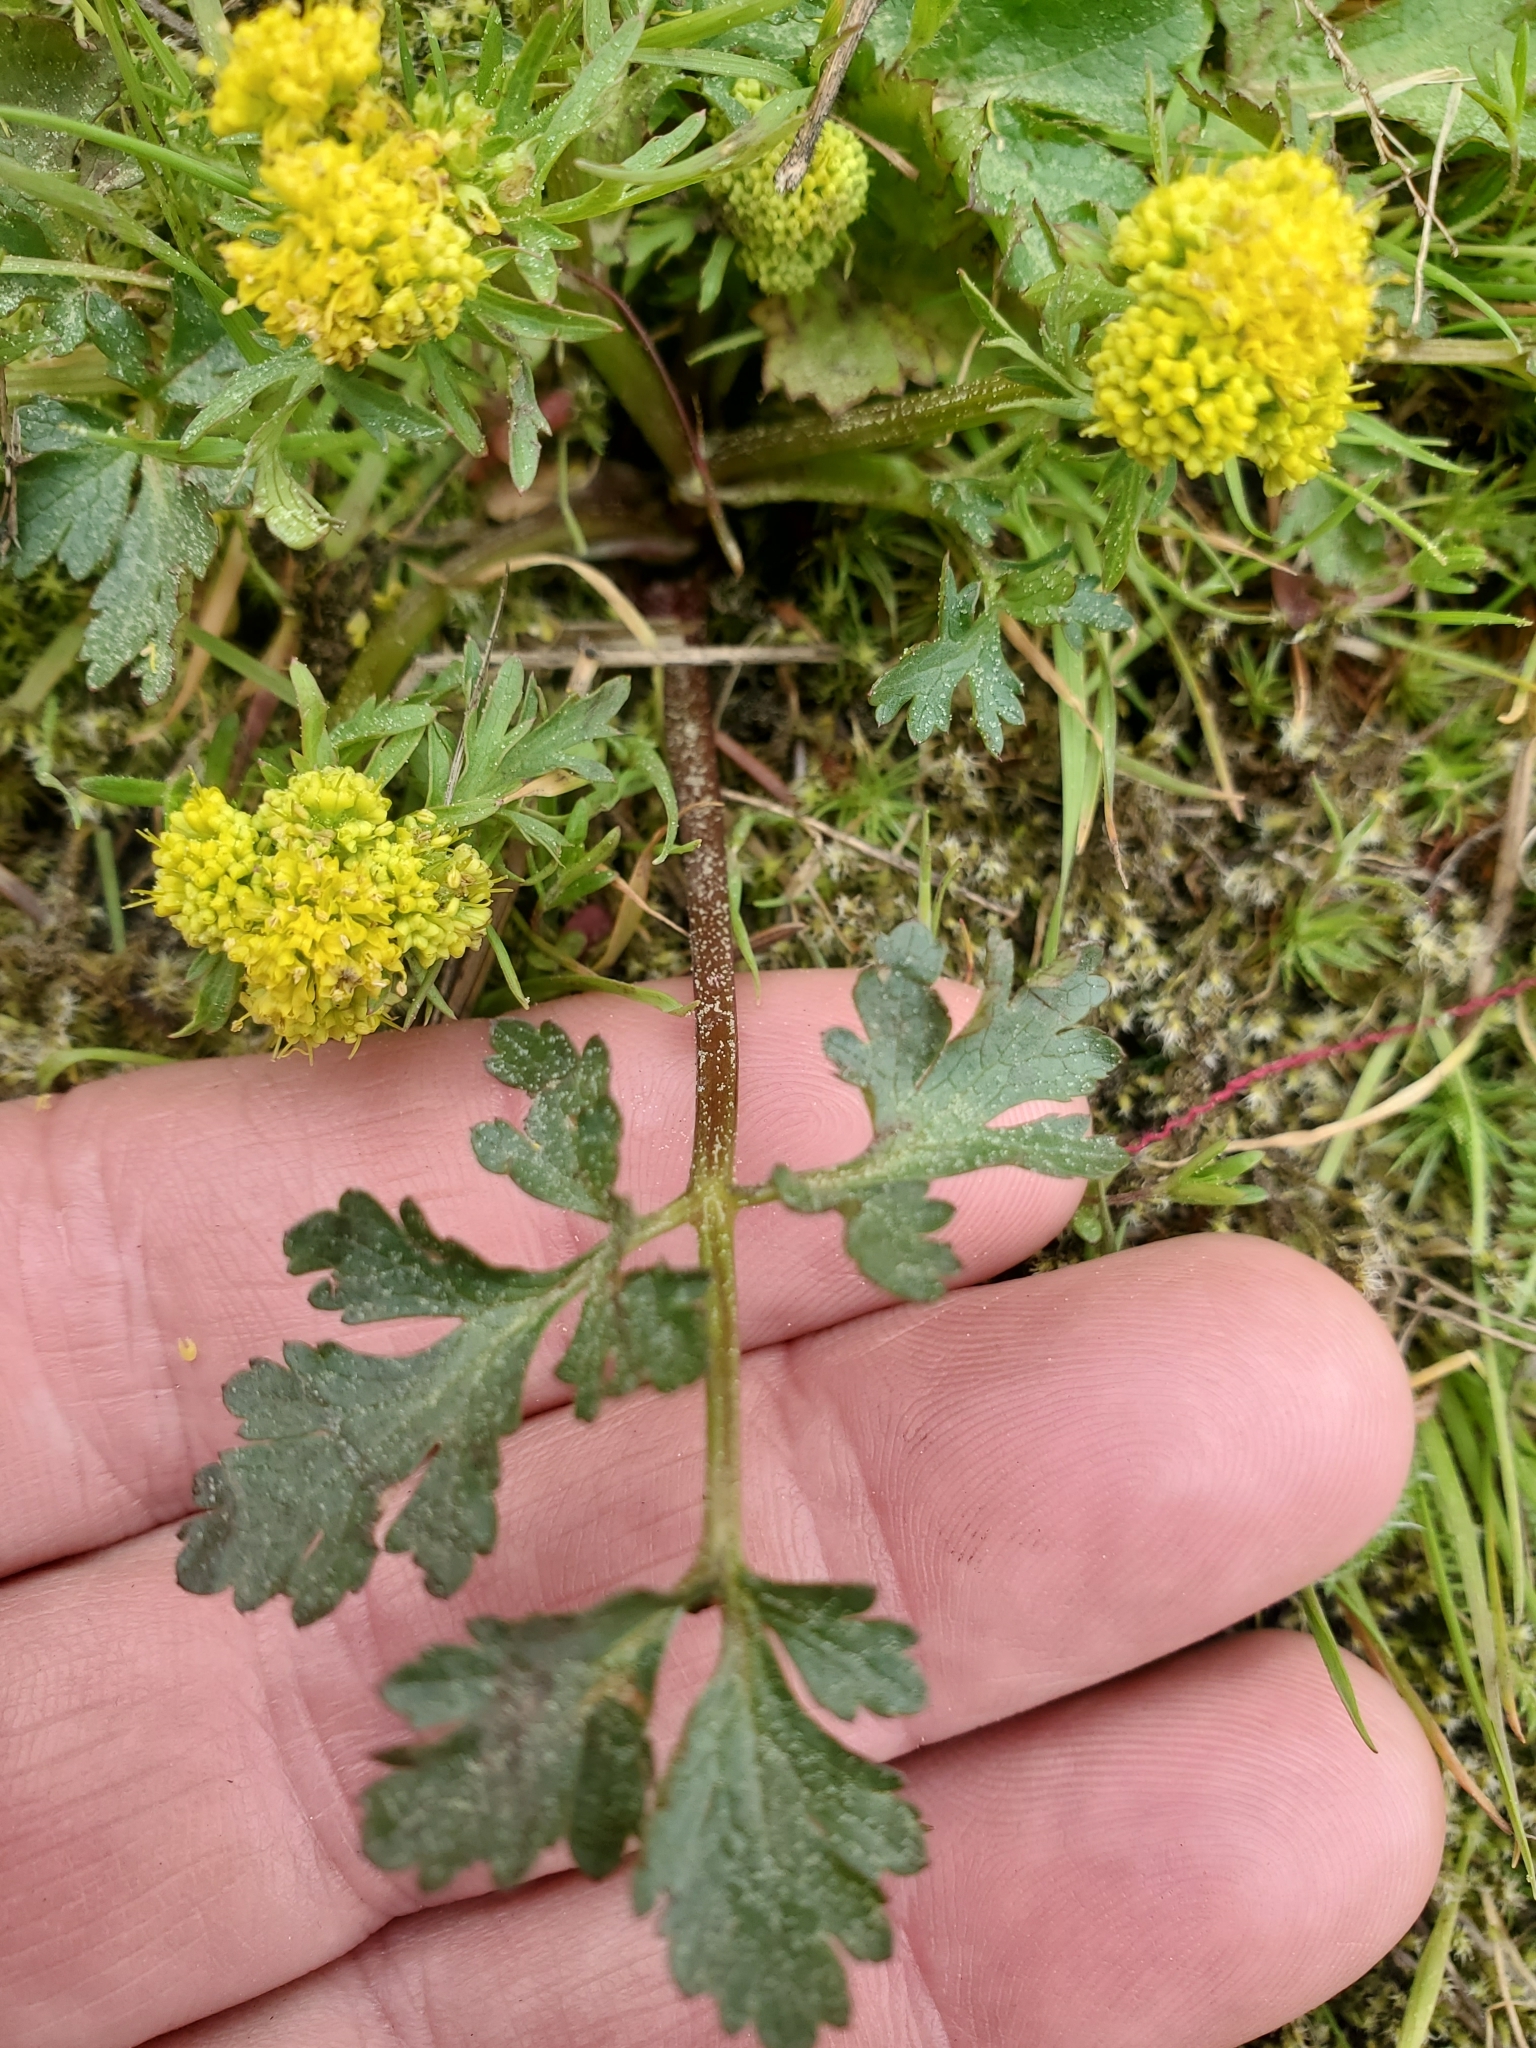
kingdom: Plantae
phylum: Tracheophyta
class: Magnoliopsida
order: Apiales
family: Apiaceae
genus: Sanicula
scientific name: Sanicula graveolens
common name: Sierra sanicle
